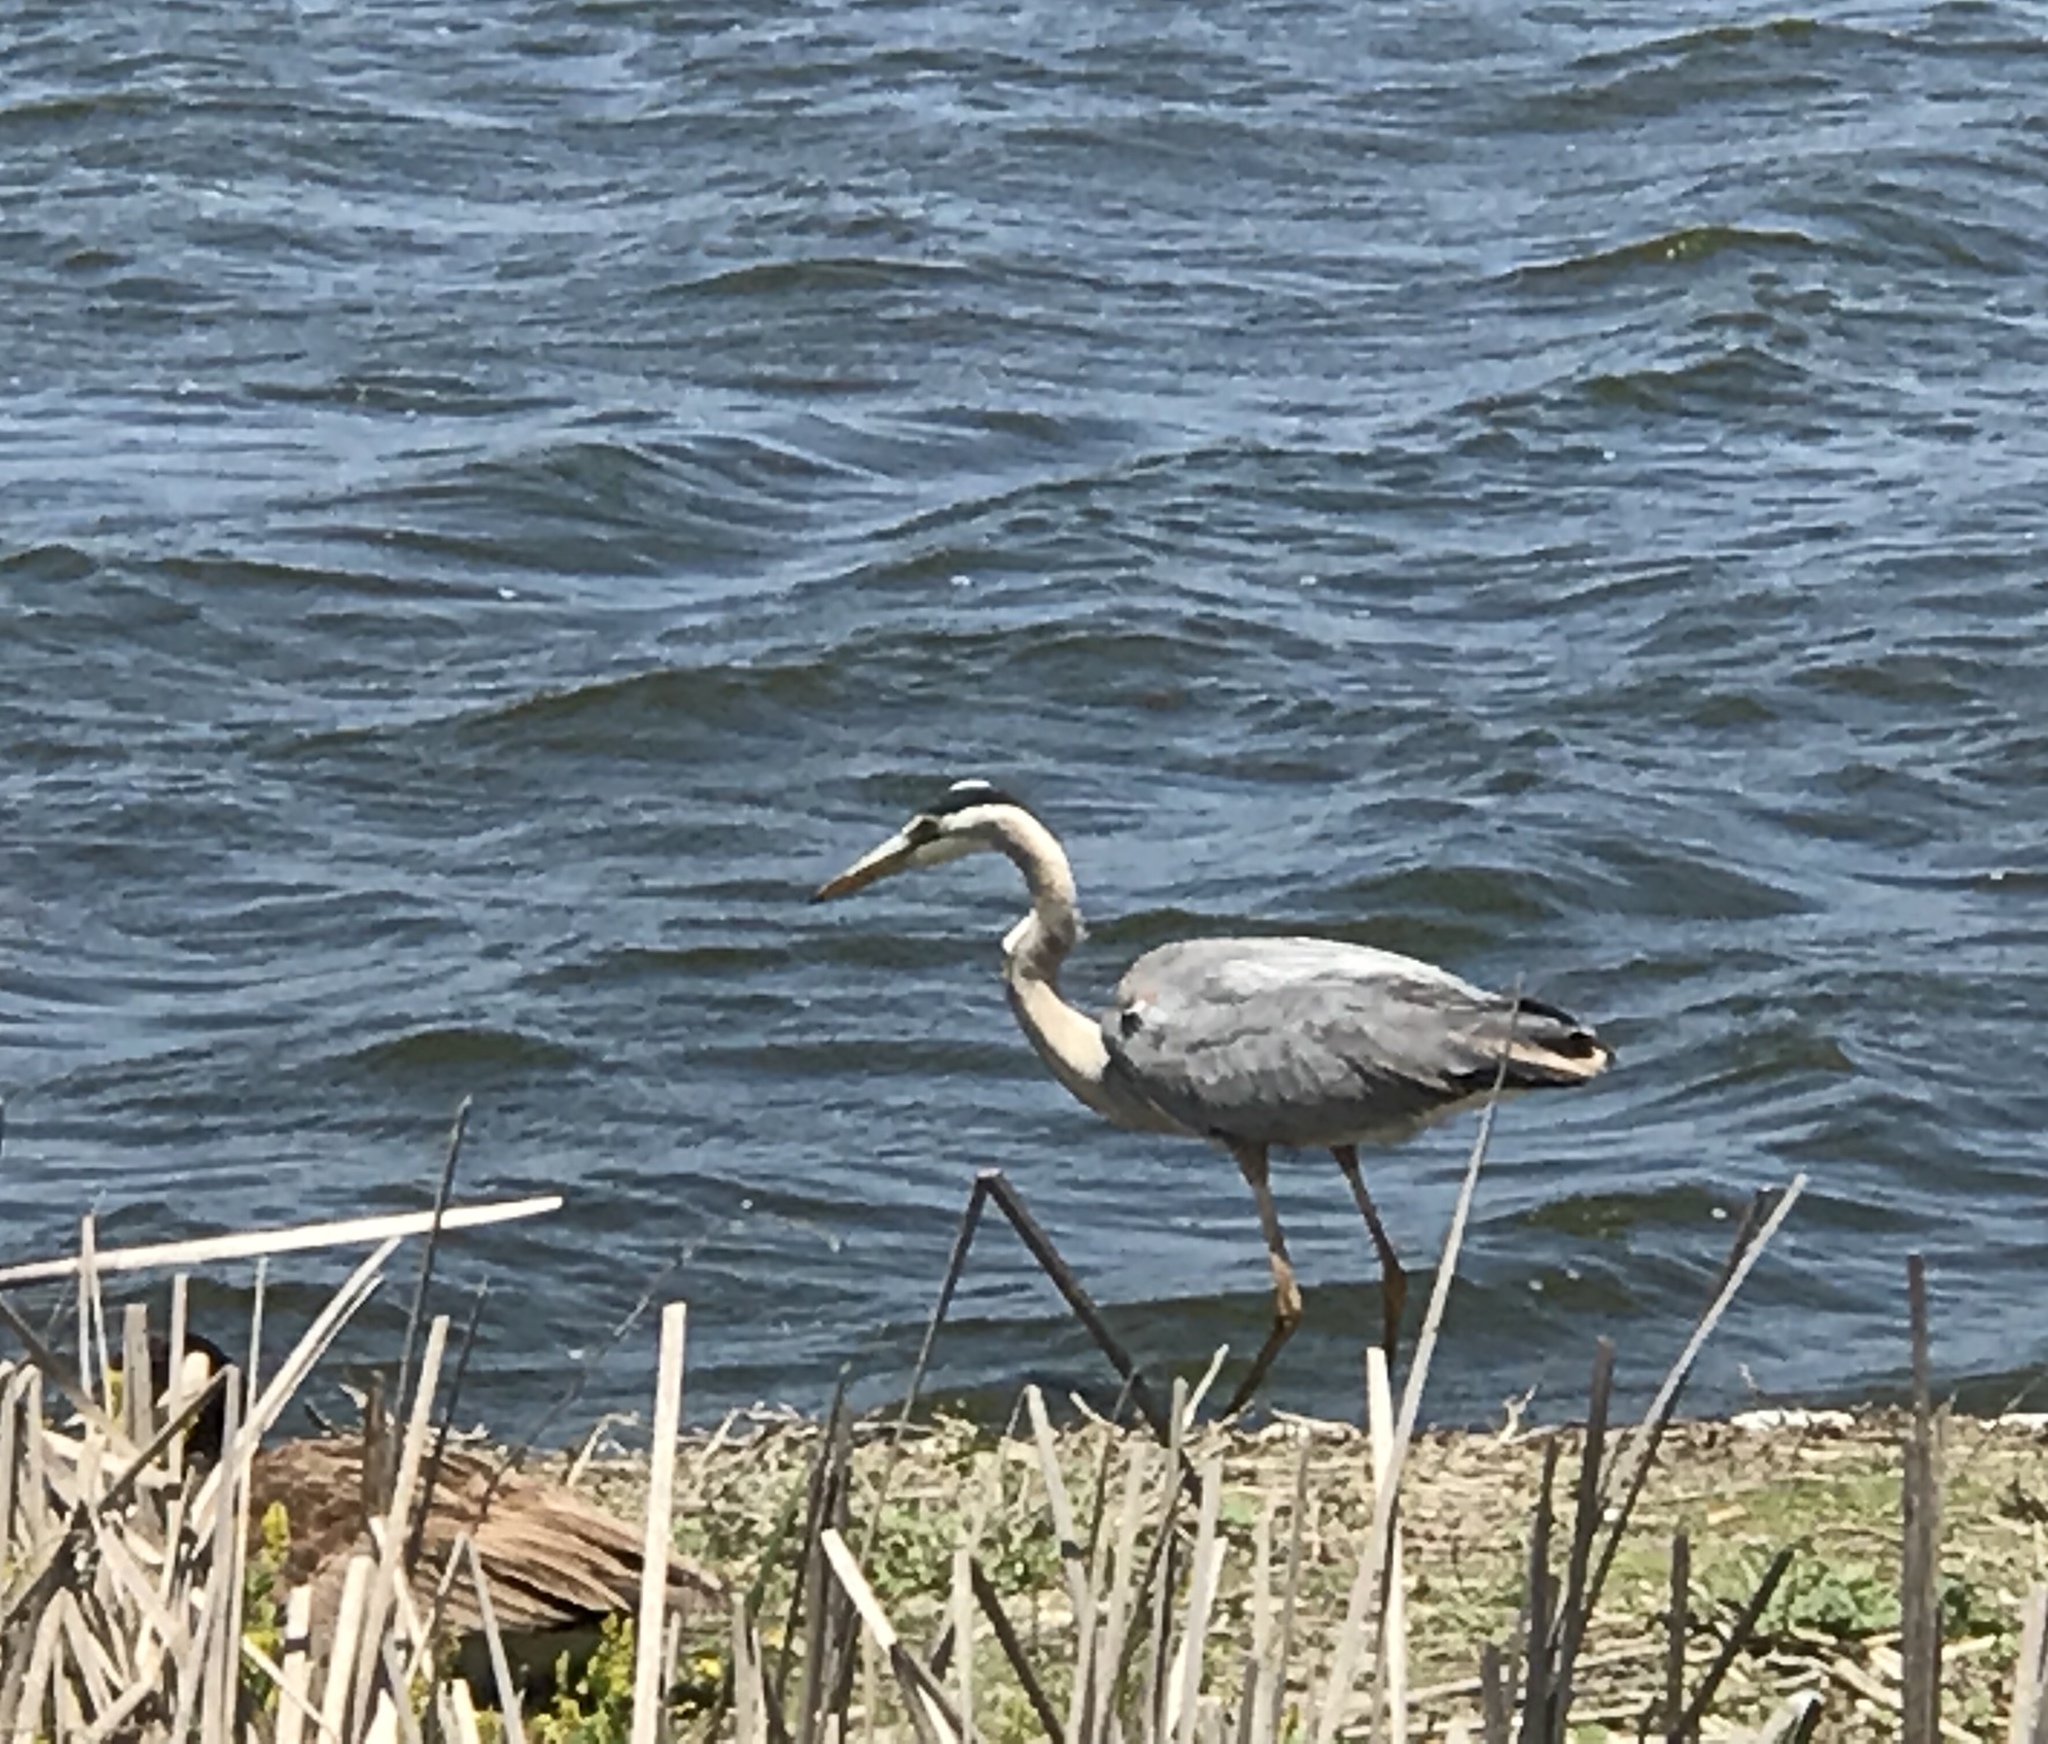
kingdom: Animalia
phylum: Chordata
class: Aves
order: Pelecaniformes
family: Ardeidae
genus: Ardea
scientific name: Ardea herodias
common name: Great blue heron
